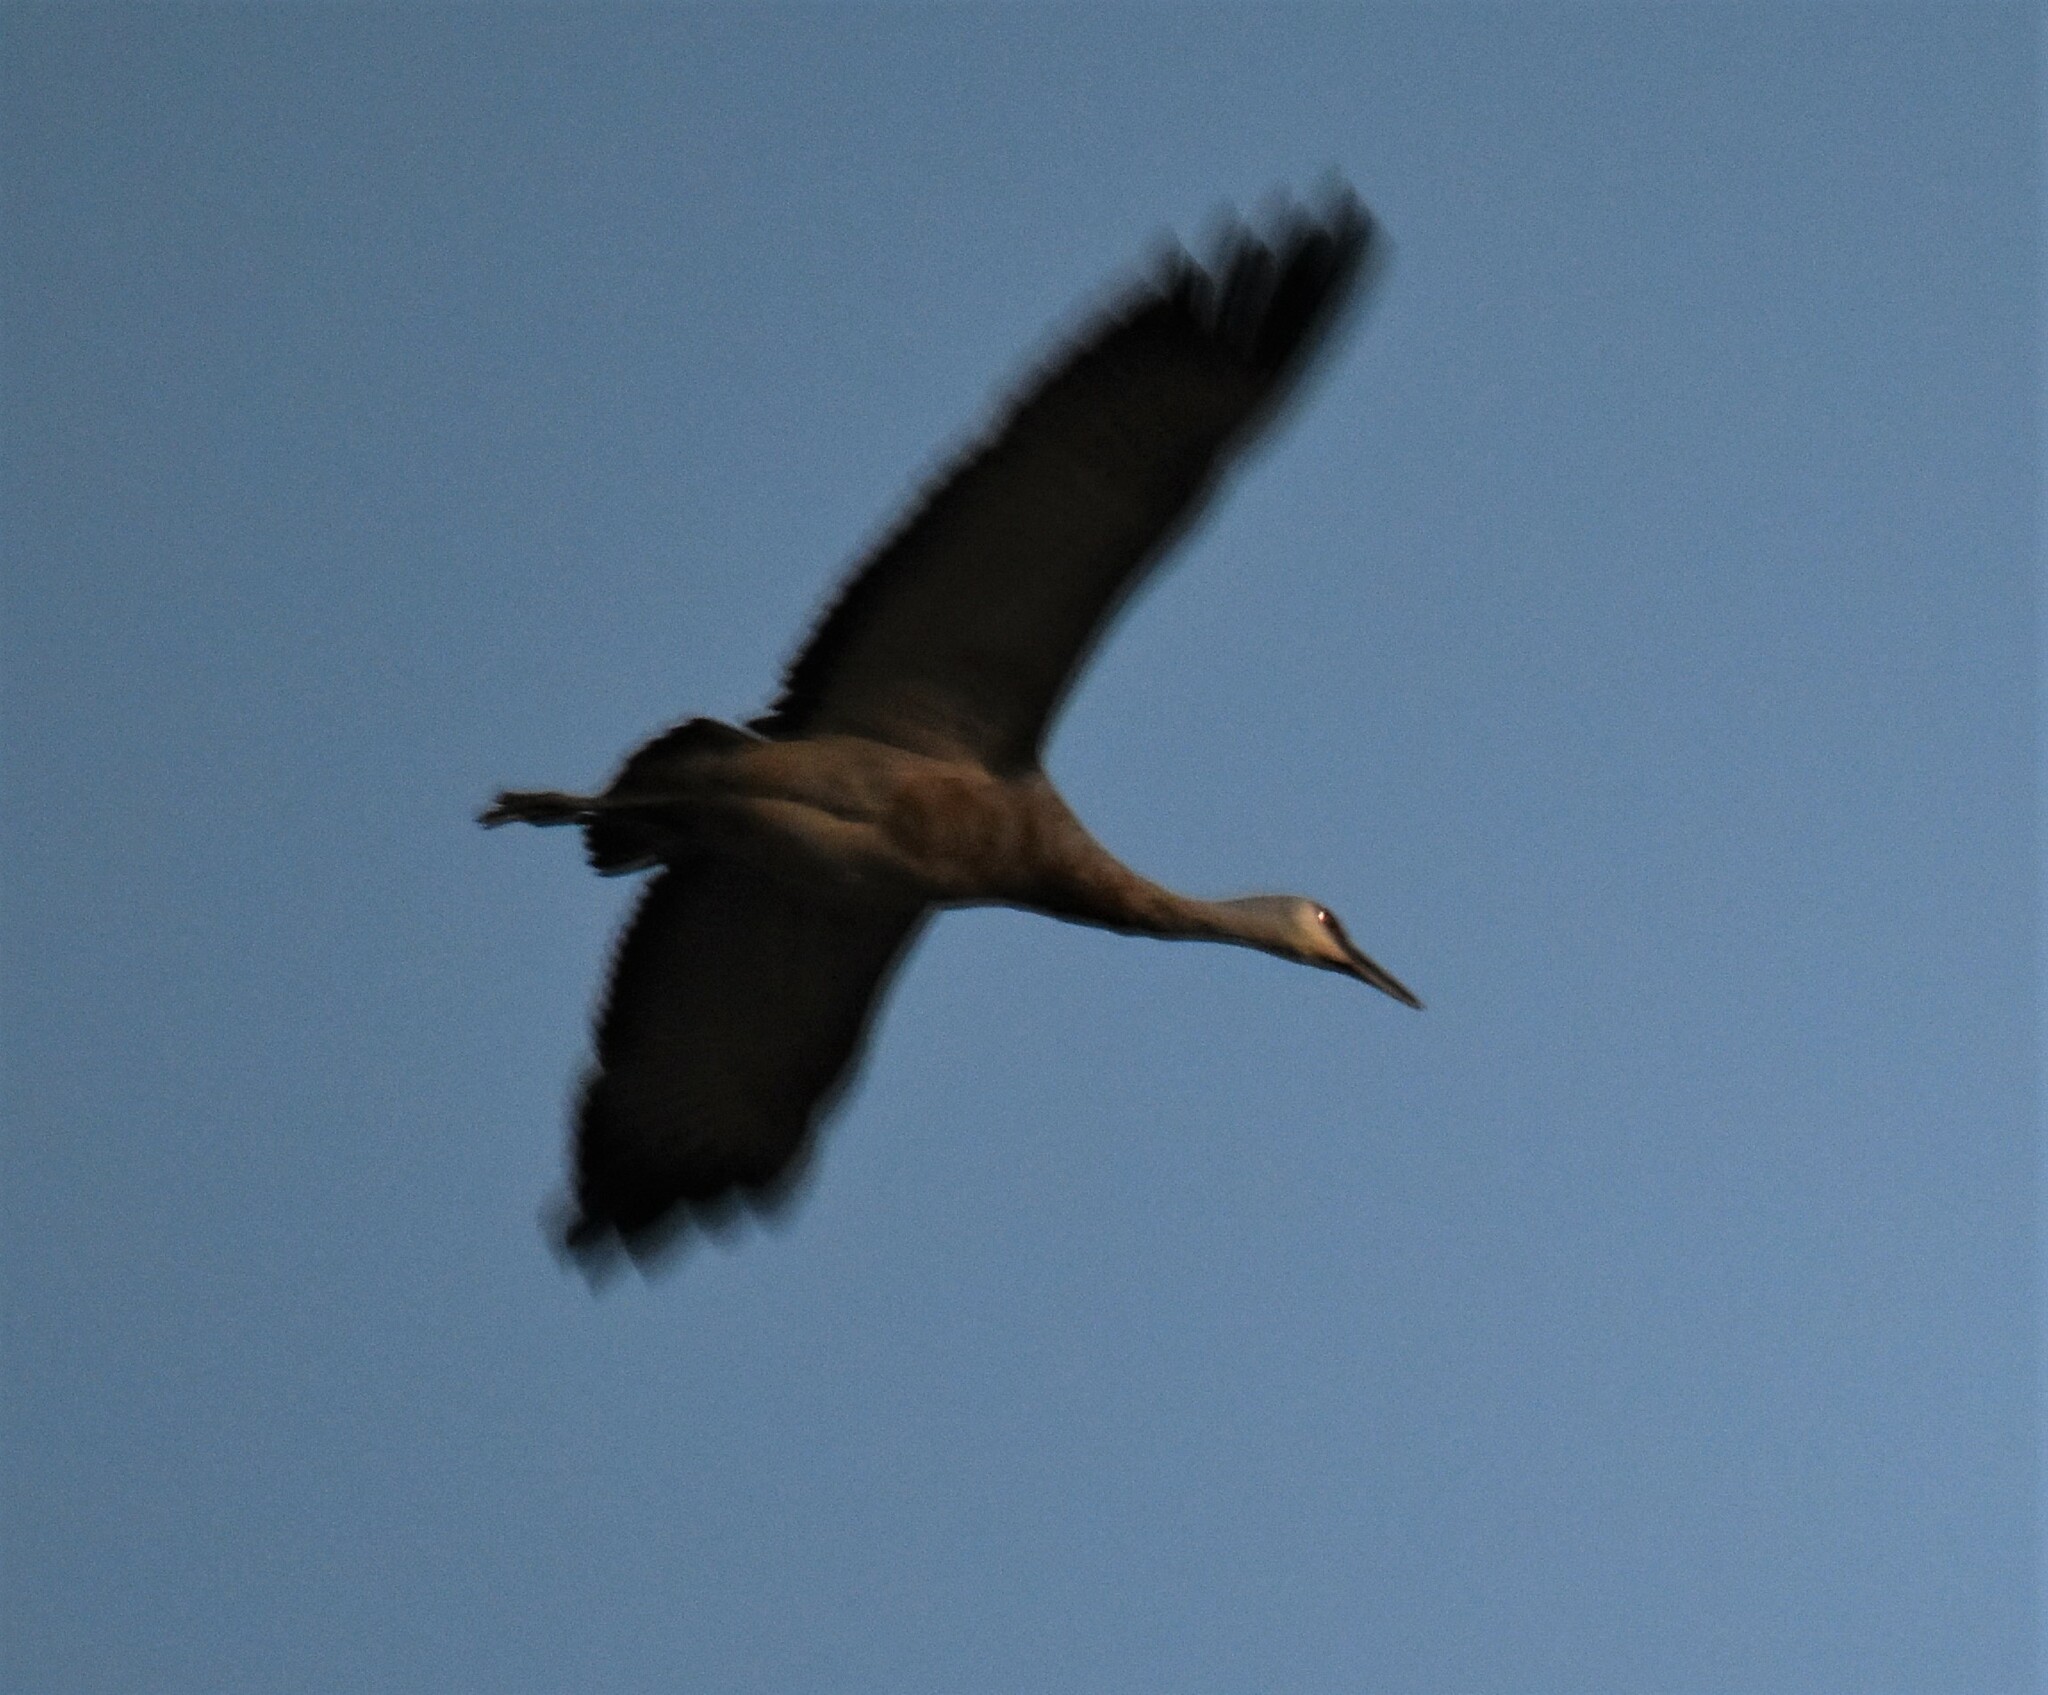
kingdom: Animalia
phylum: Chordata
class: Aves
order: Gruiformes
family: Gruidae
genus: Grus
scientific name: Grus canadensis
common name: Sandhill crane
